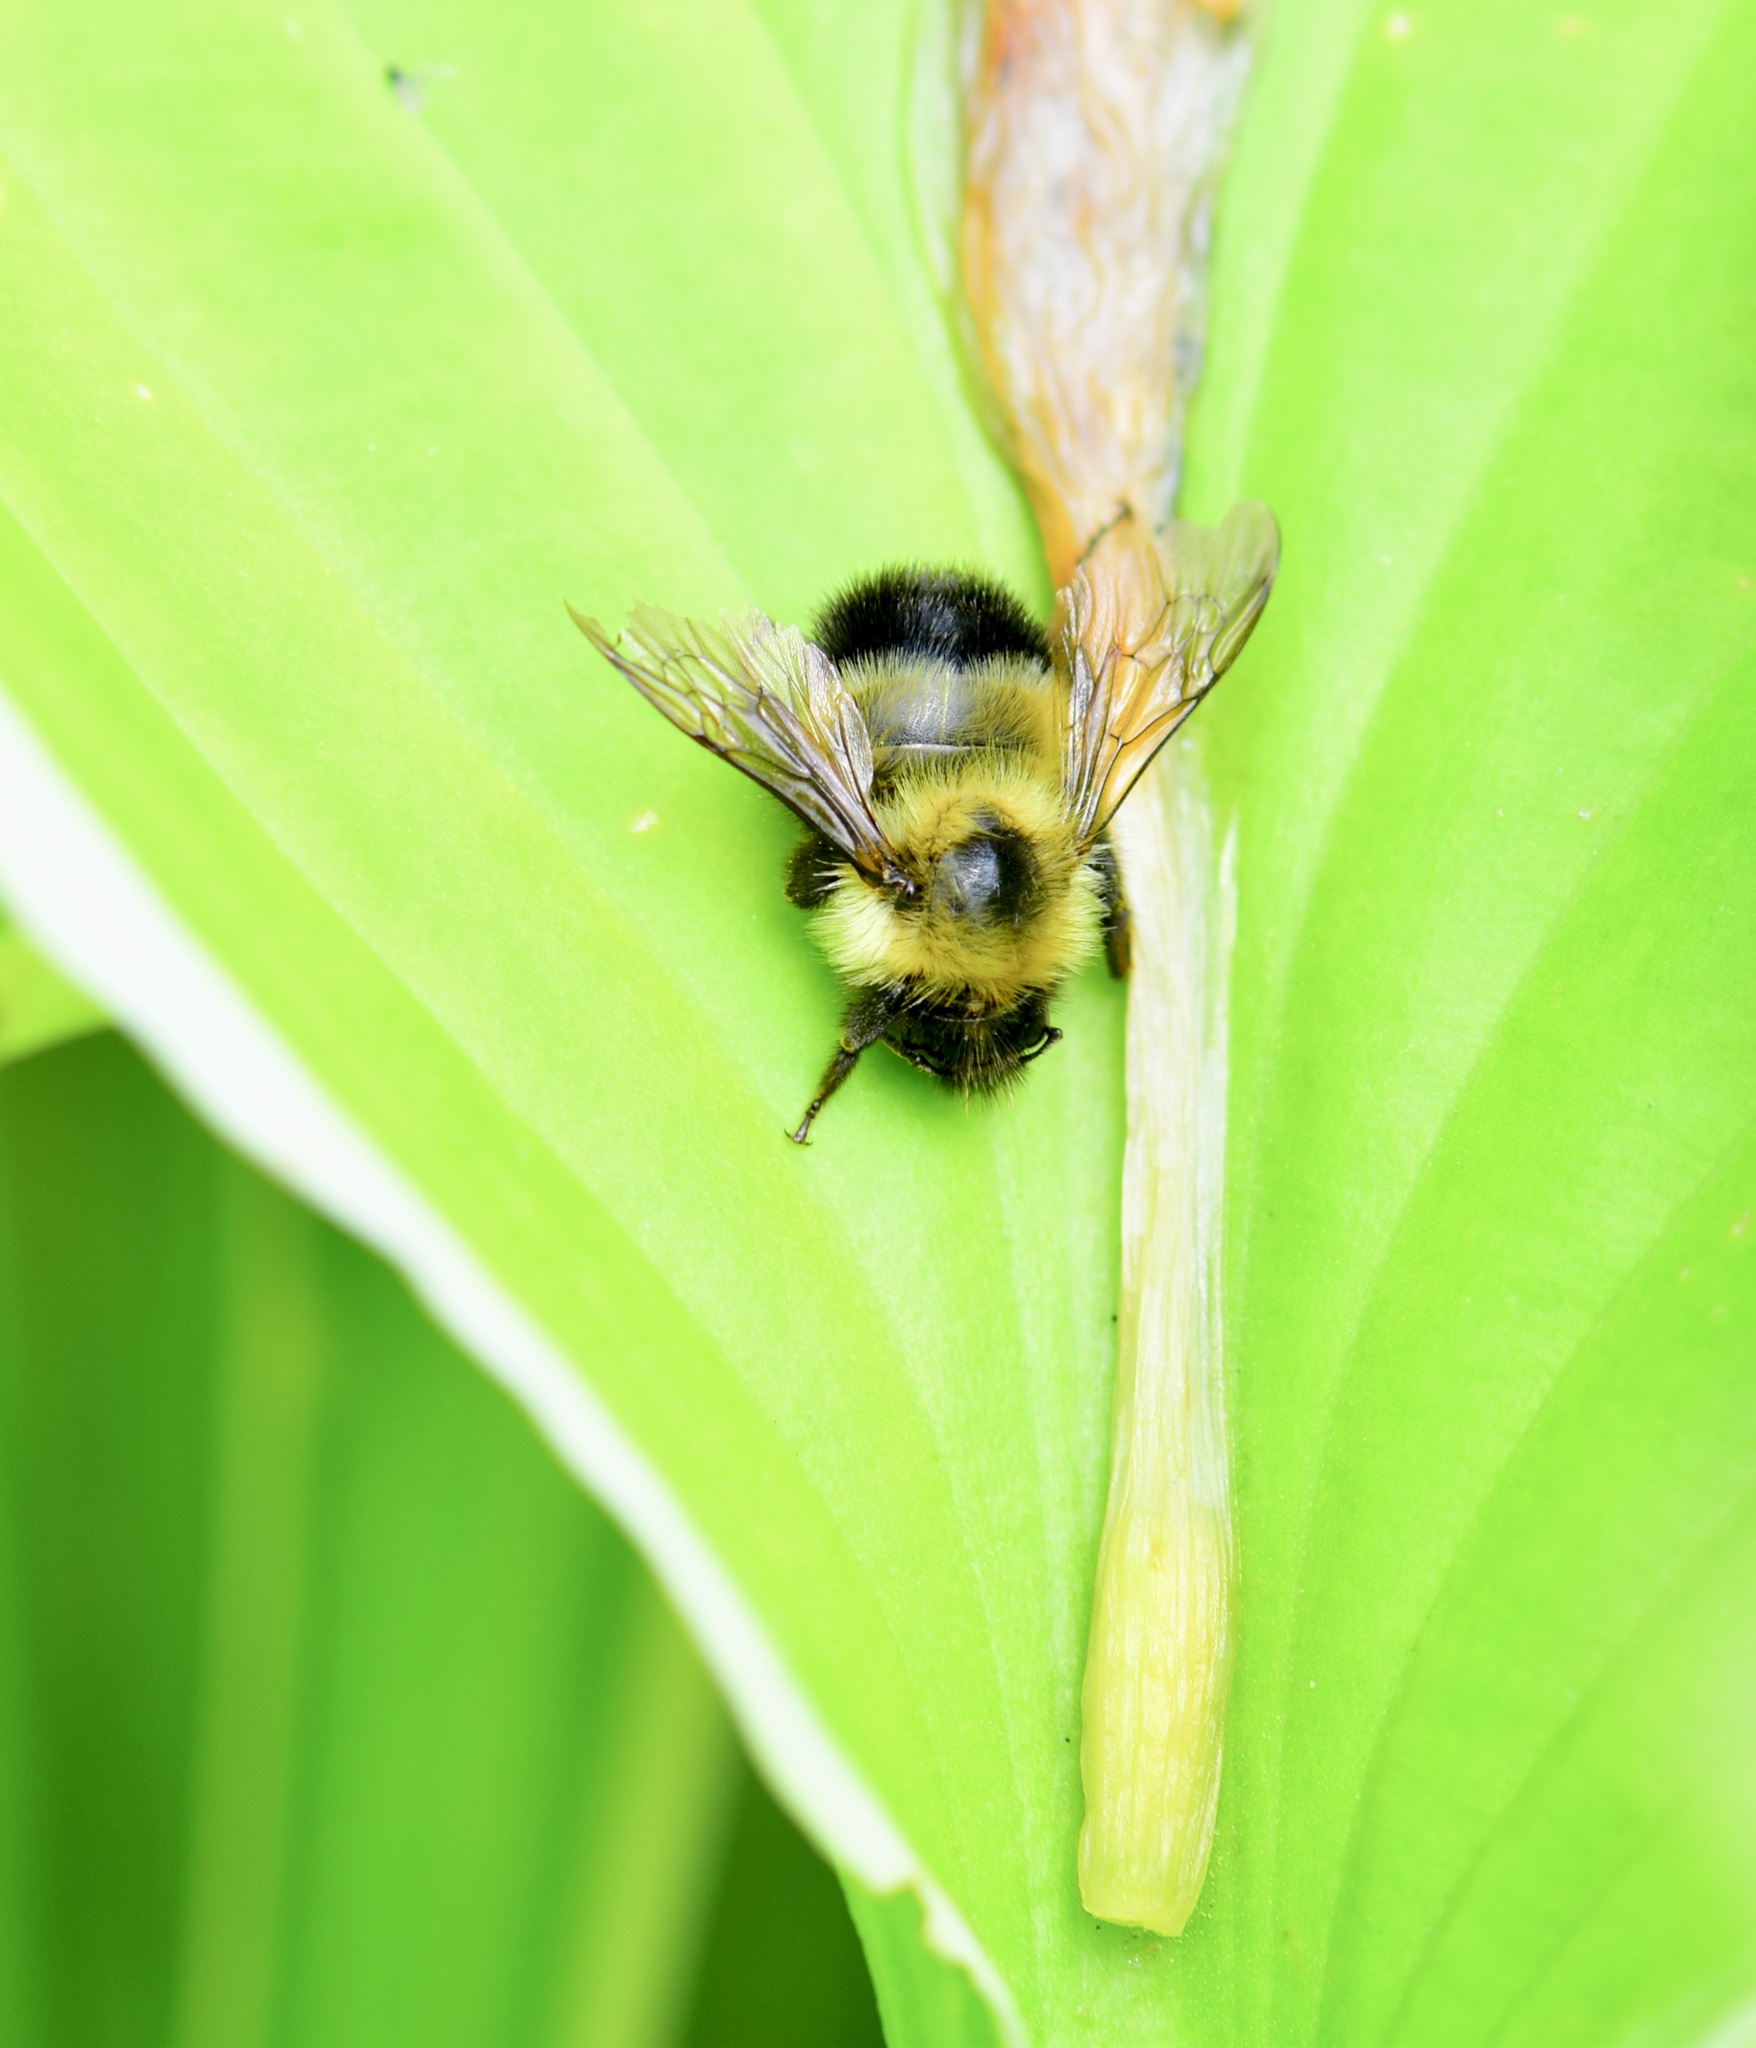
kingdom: Animalia
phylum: Arthropoda
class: Insecta
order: Hymenoptera
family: Apidae
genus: Bombus
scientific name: Bombus vagans
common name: Half-black bumble bee
